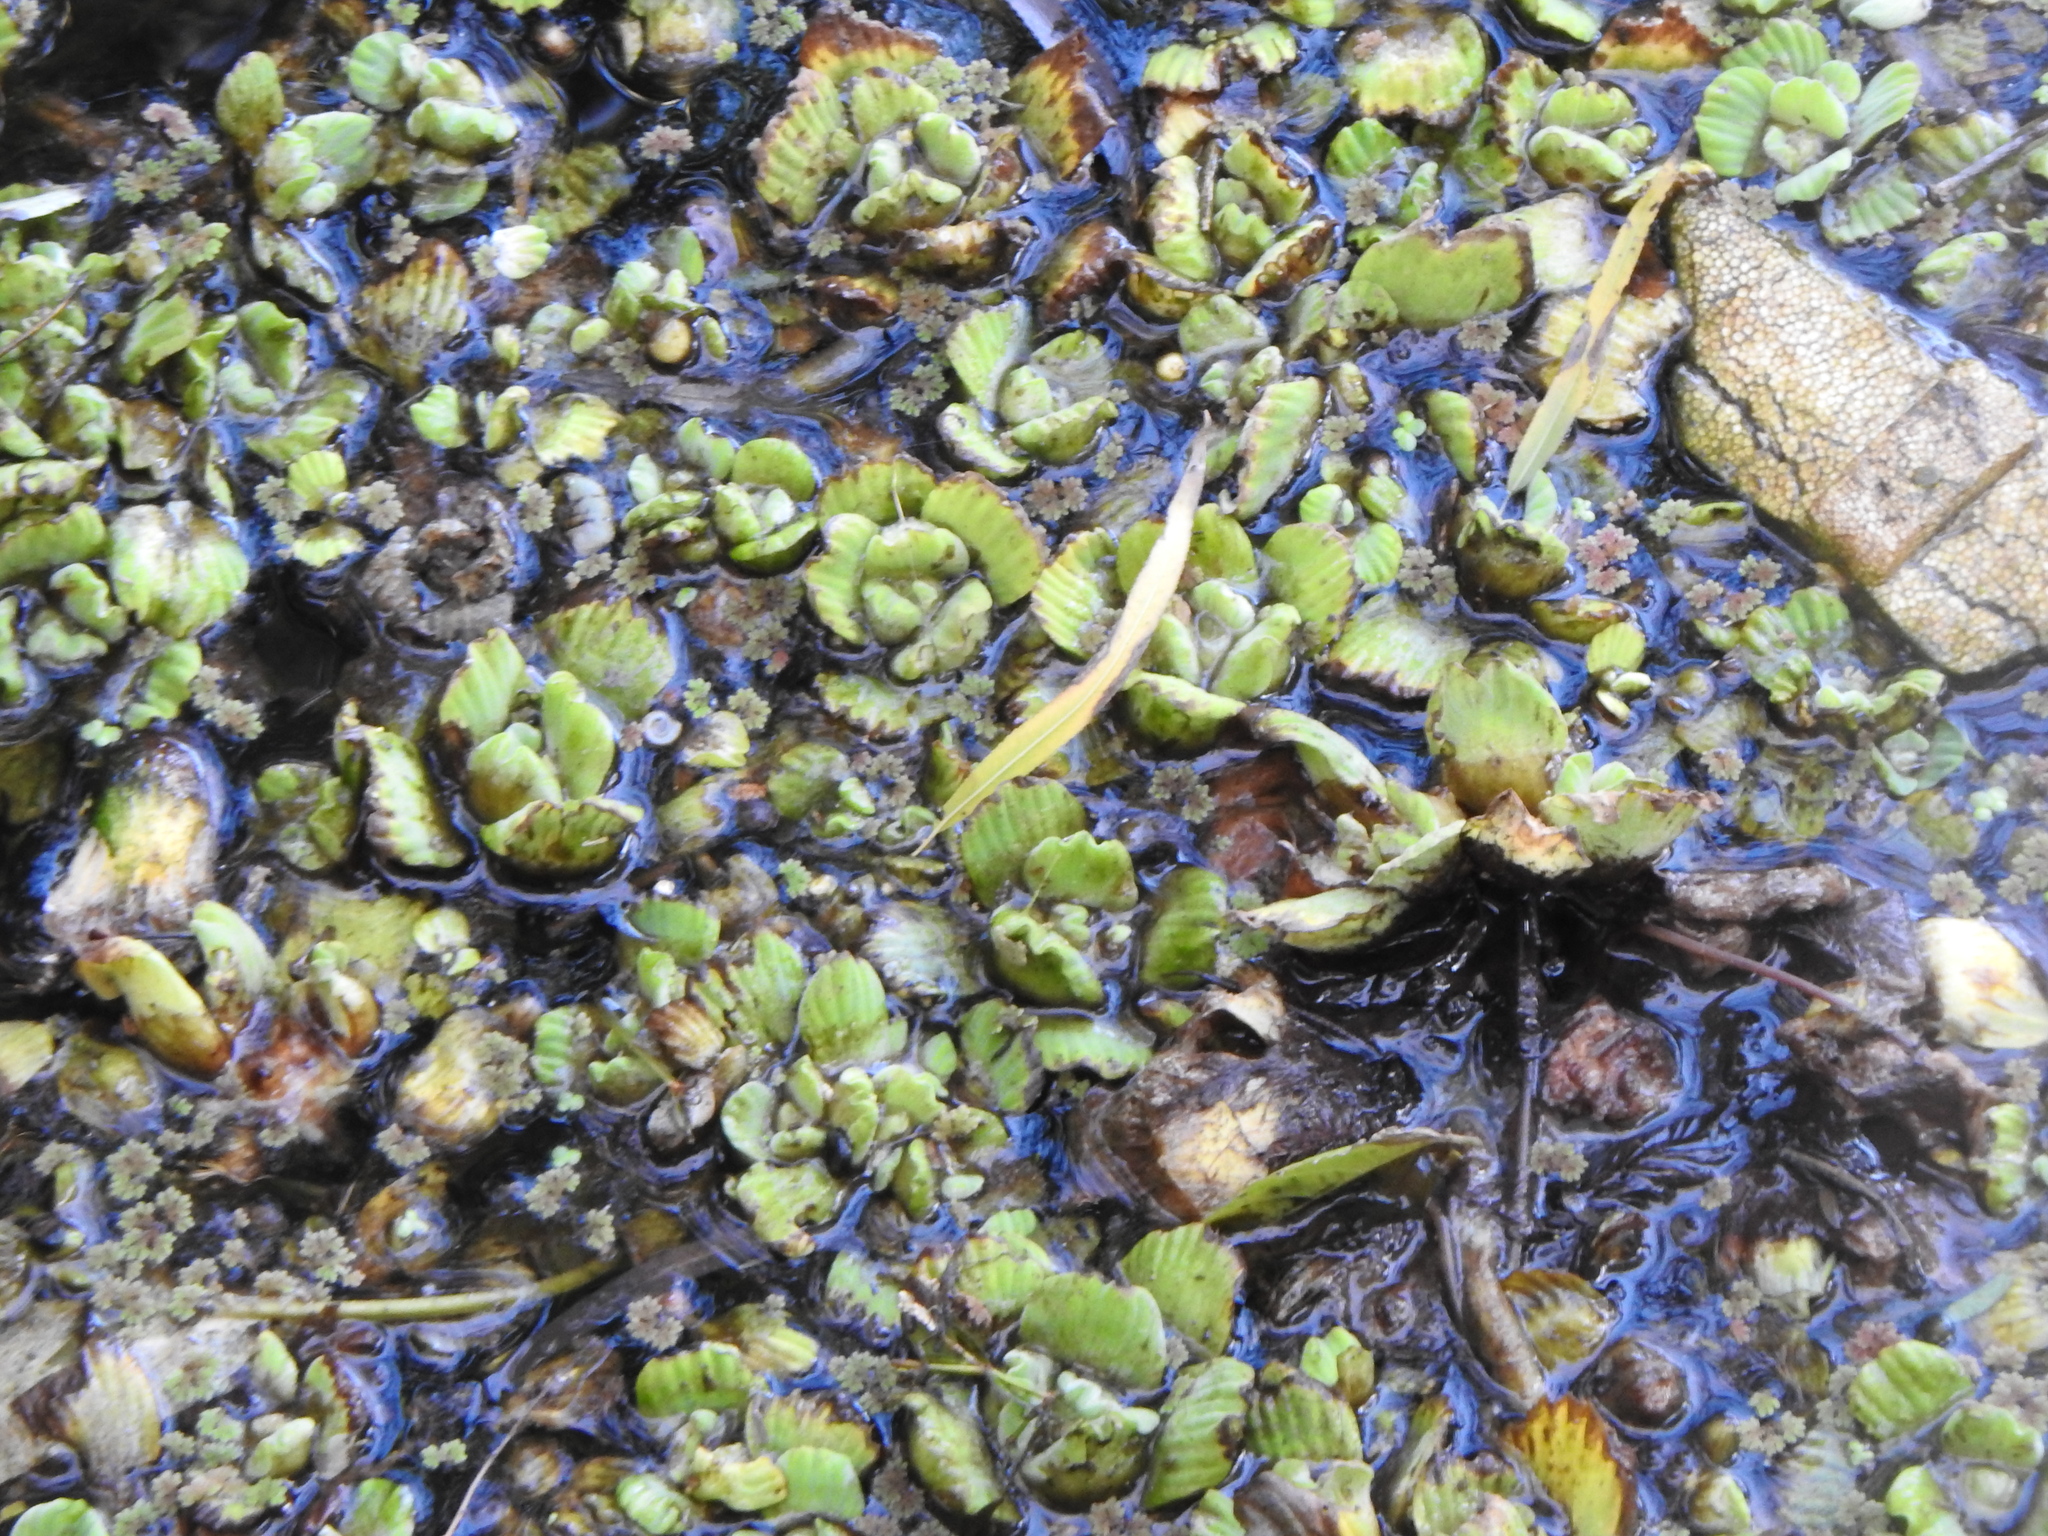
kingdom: Plantae
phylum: Tracheophyta
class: Liliopsida
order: Alismatales
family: Araceae
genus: Pistia
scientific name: Pistia stratiotes
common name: Water lettuce
